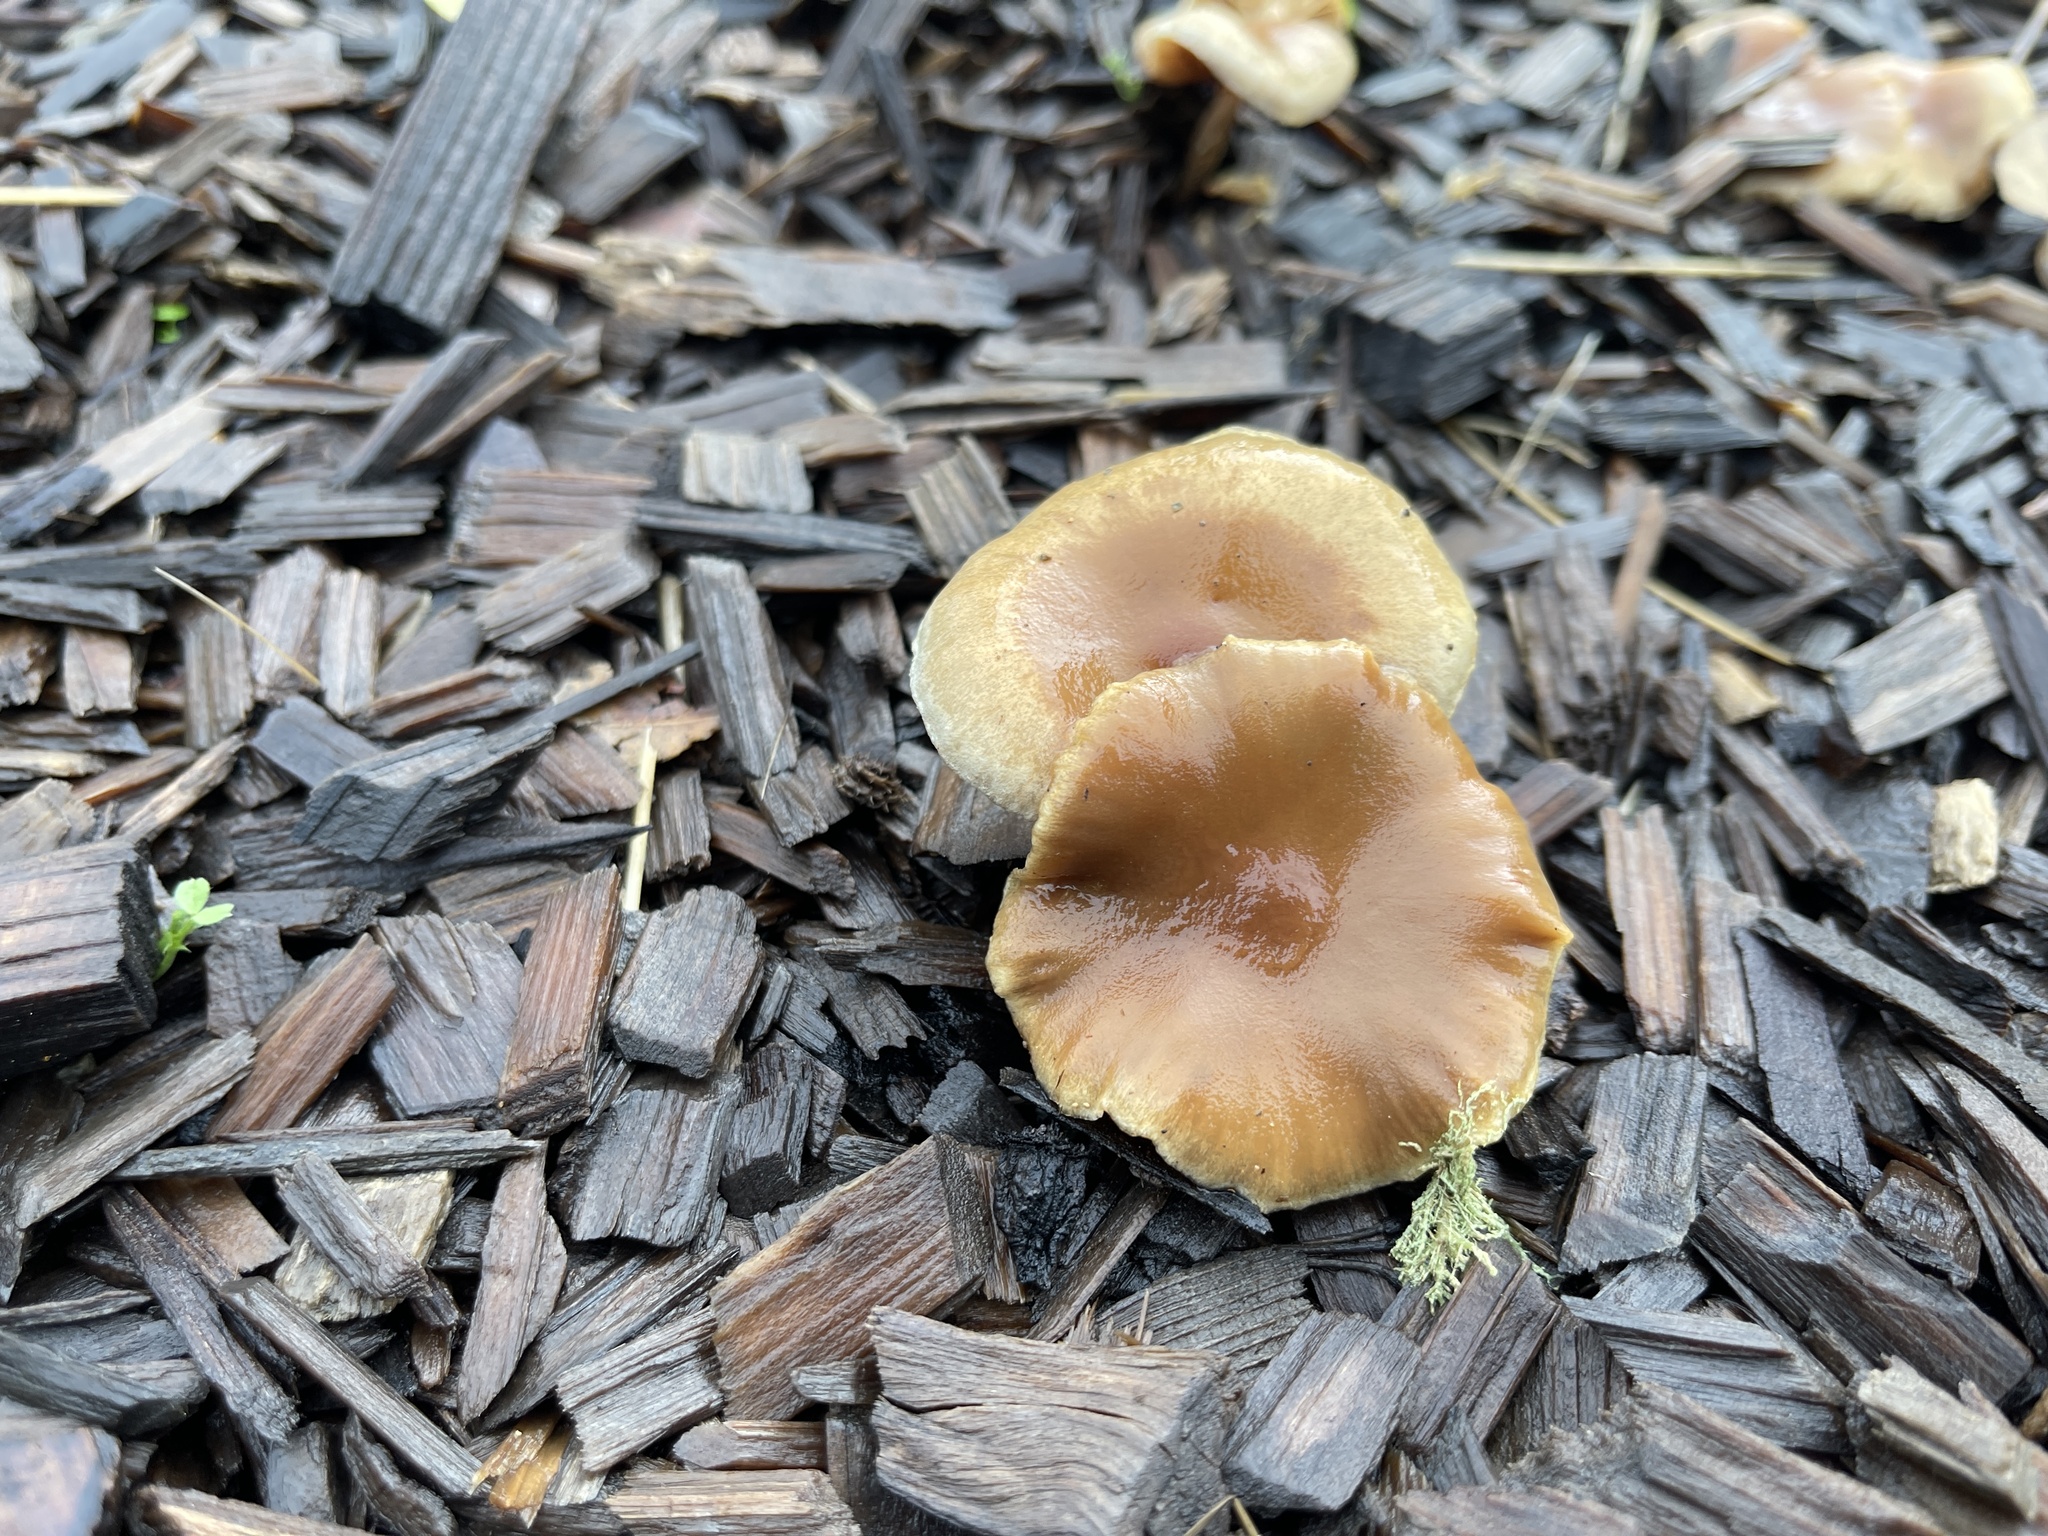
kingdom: Fungi
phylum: Basidiomycota
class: Agaricomycetes
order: Agaricales
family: Strophariaceae
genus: Pholiota
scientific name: Pholiota spumosa
